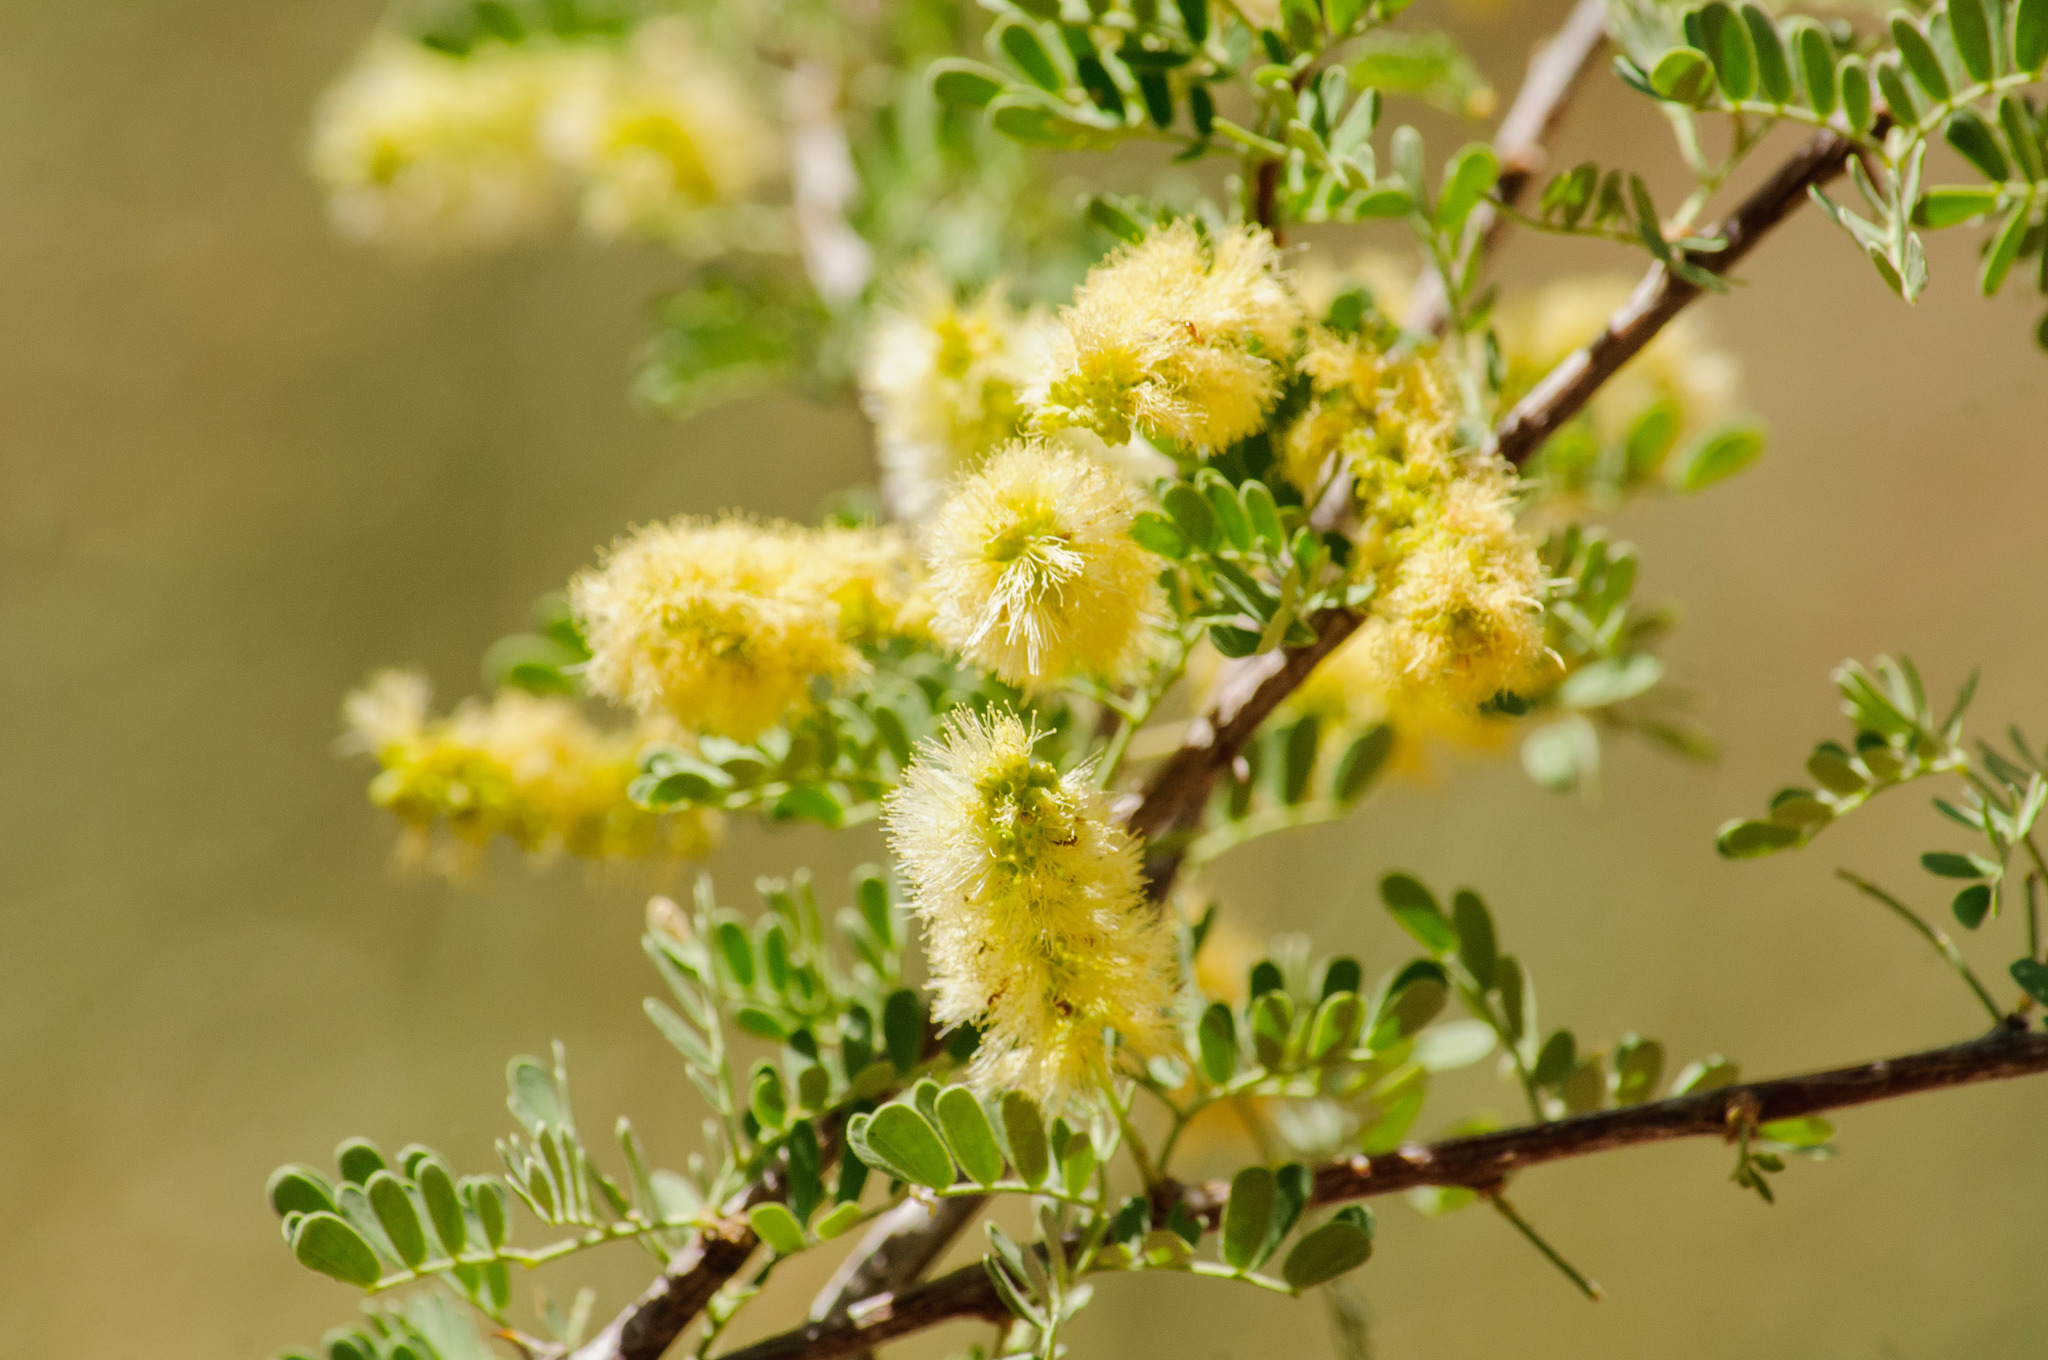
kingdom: Plantae
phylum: Tracheophyta
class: Magnoliopsida
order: Fabales
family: Fabaceae
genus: Senegalia
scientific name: Senegalia greggii
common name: Texas-mimosa
